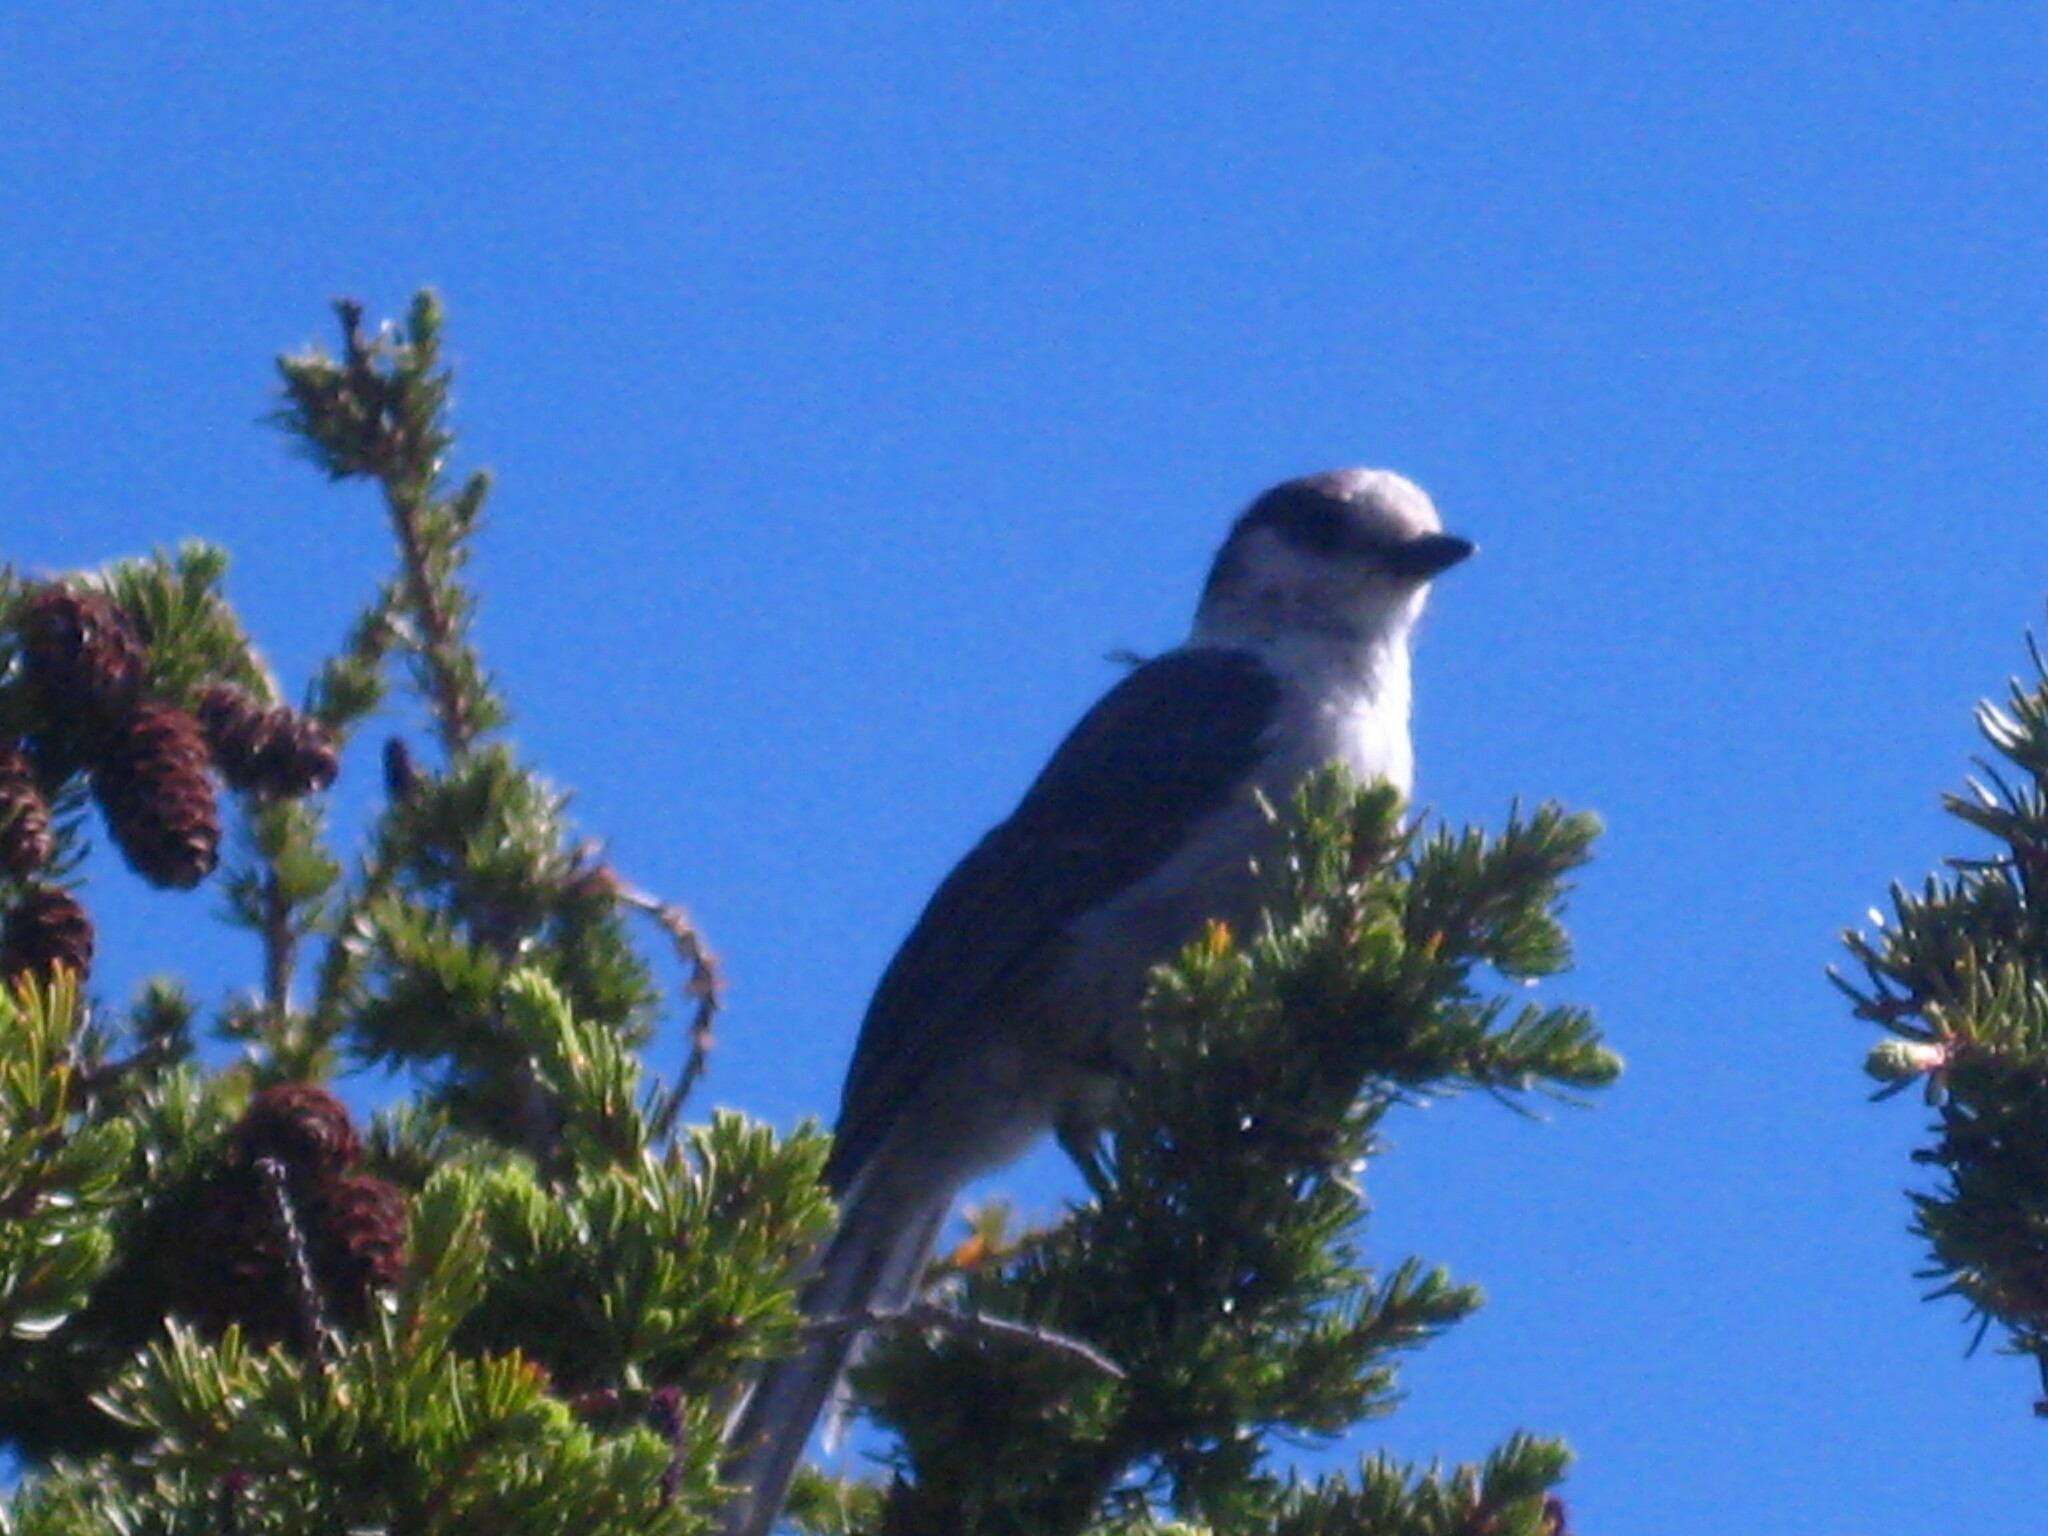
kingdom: Animalia
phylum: Chordata
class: Aves
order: Passeriformes
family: Corvidae
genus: Perisoreus
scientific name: Perisoreus canadensis
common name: Gray jay
